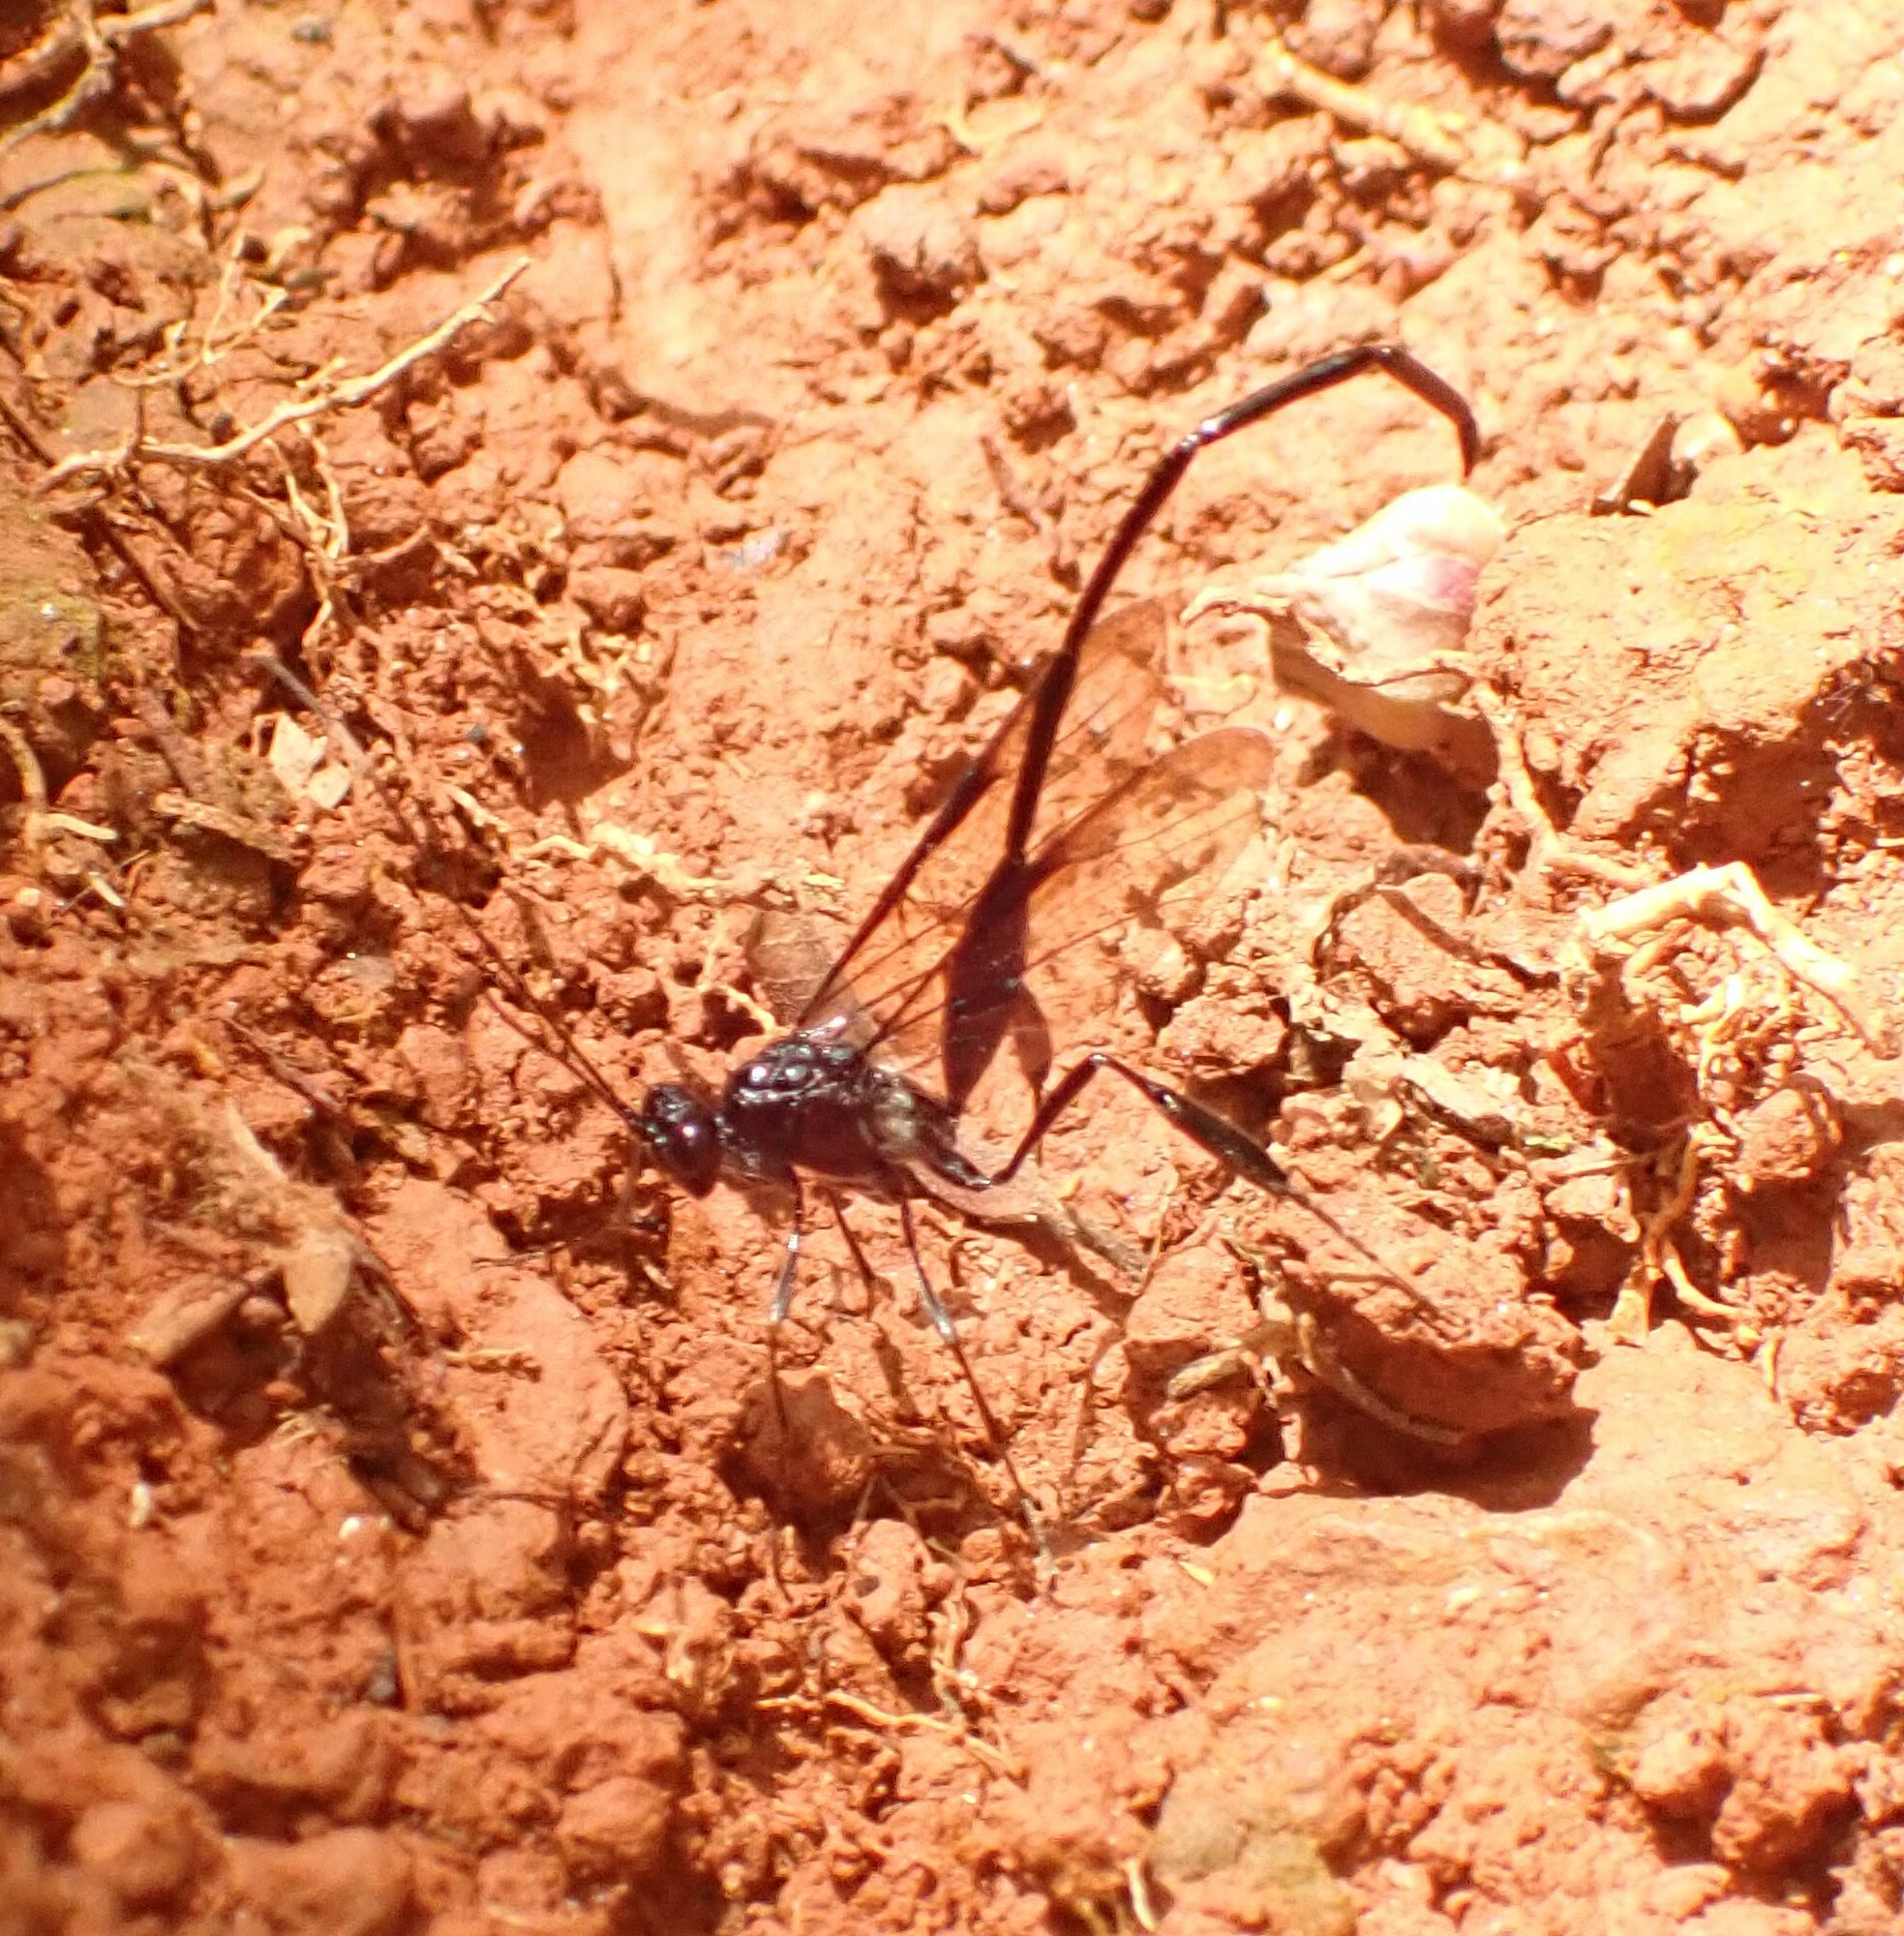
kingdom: Animalia
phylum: Arthropoda
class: Insecta
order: Hymenoptera
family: Pelecinidae
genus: Pelecinus
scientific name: Pelecinus polyturator
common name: American pelecinid wasp
